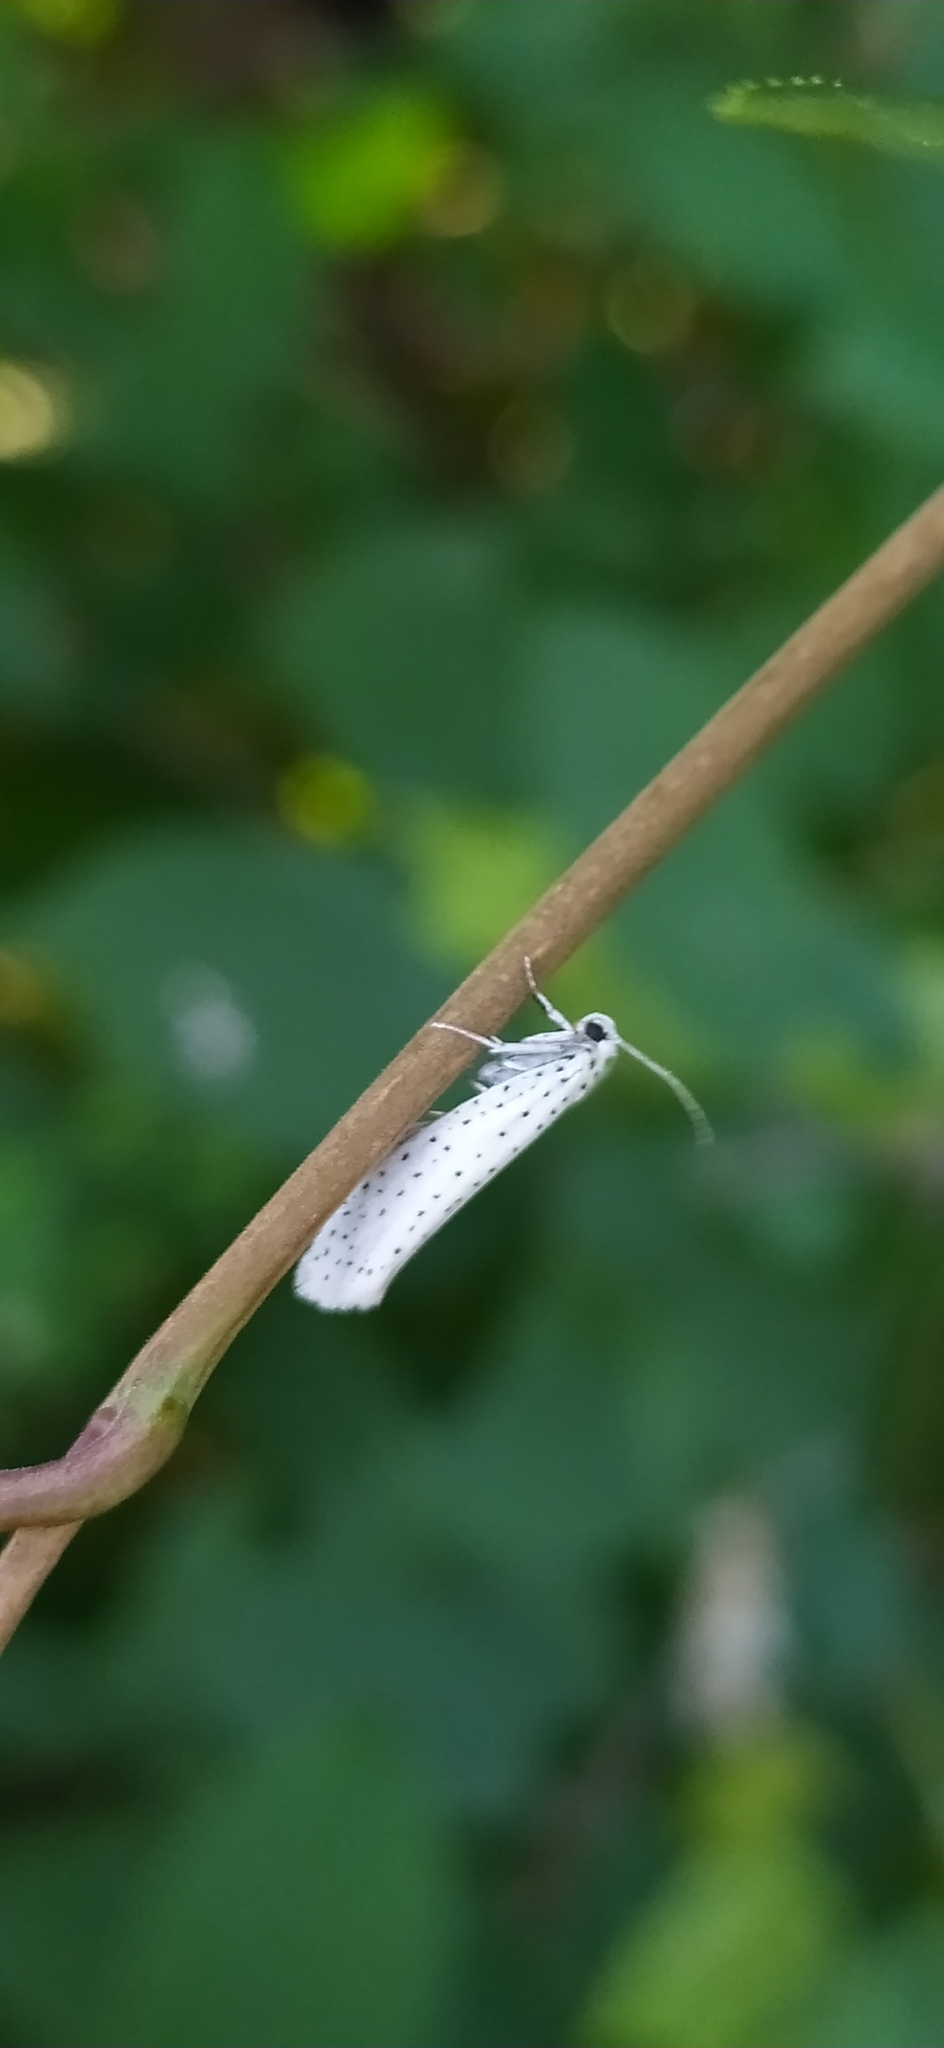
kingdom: Animalia
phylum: Arthropoda
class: Insecta
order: Lepidoptera
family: Yponomeutidae
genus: Yponomeuta
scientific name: Yponomeuta evonymella
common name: Bird-cherry ermine
